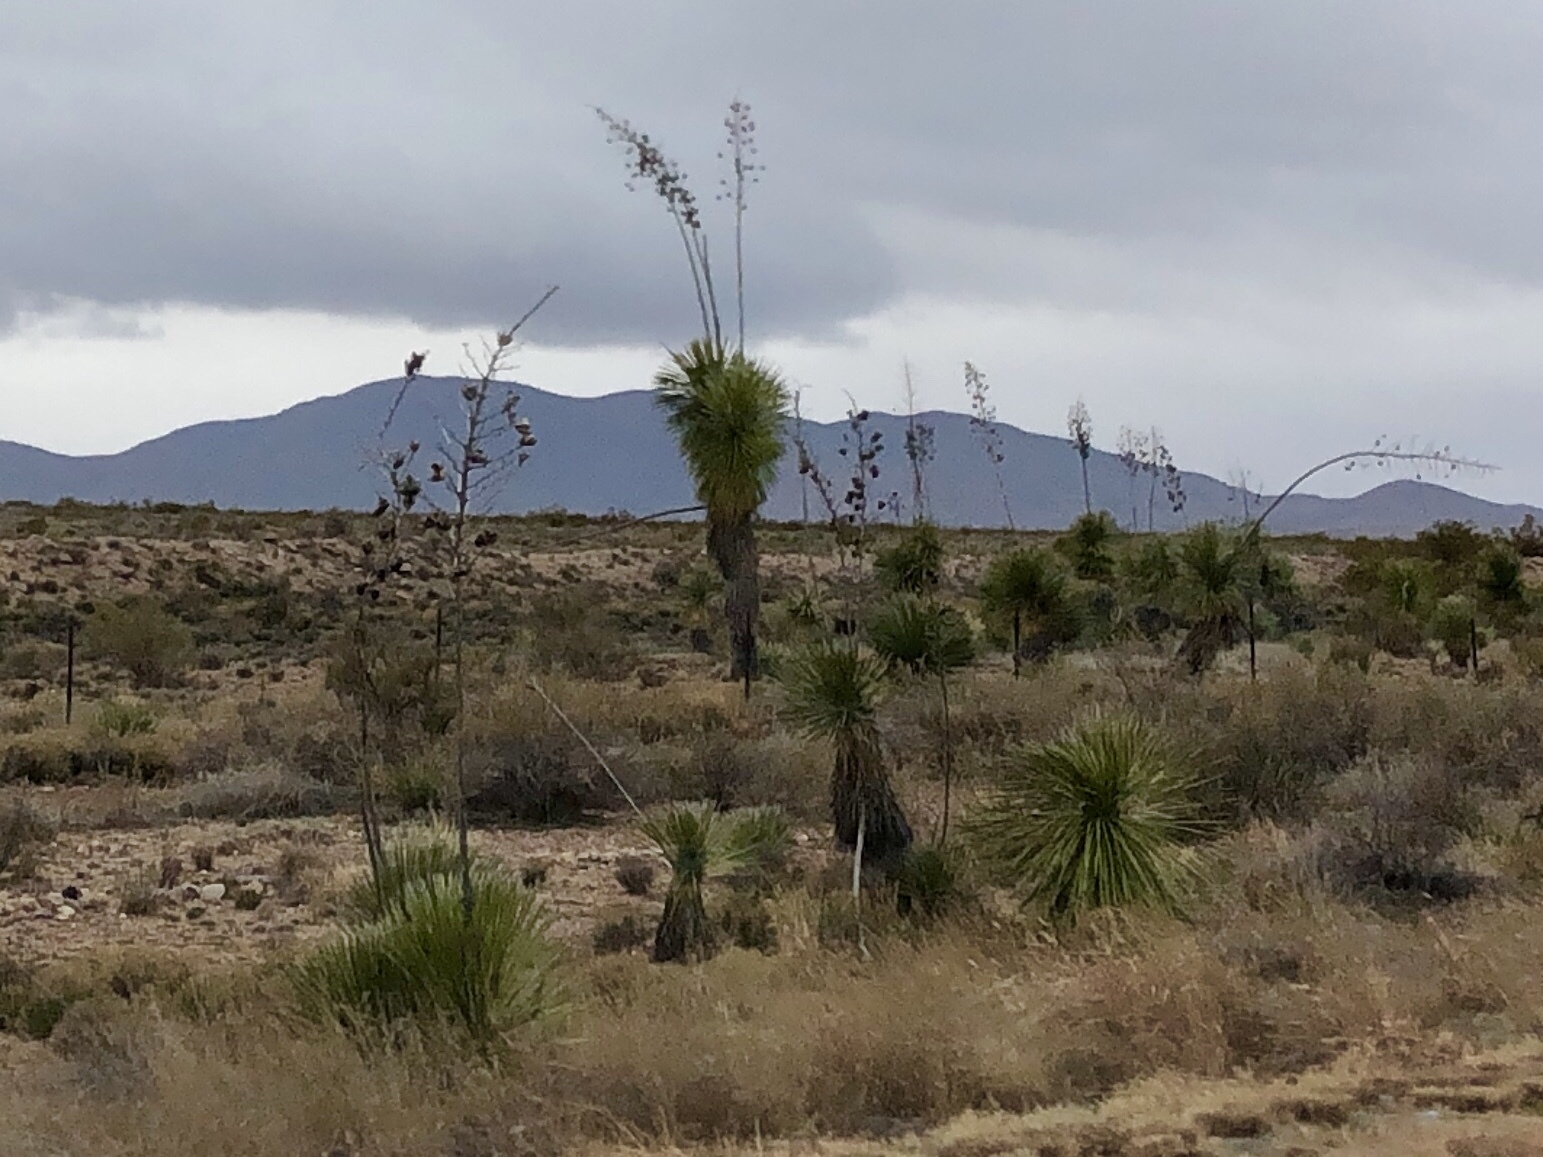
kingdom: Plantae
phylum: Tracheophyta
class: Liliopsida
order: Asparagales
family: Asparagaceae
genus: Yucca
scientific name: Yucca elata
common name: Palmella
